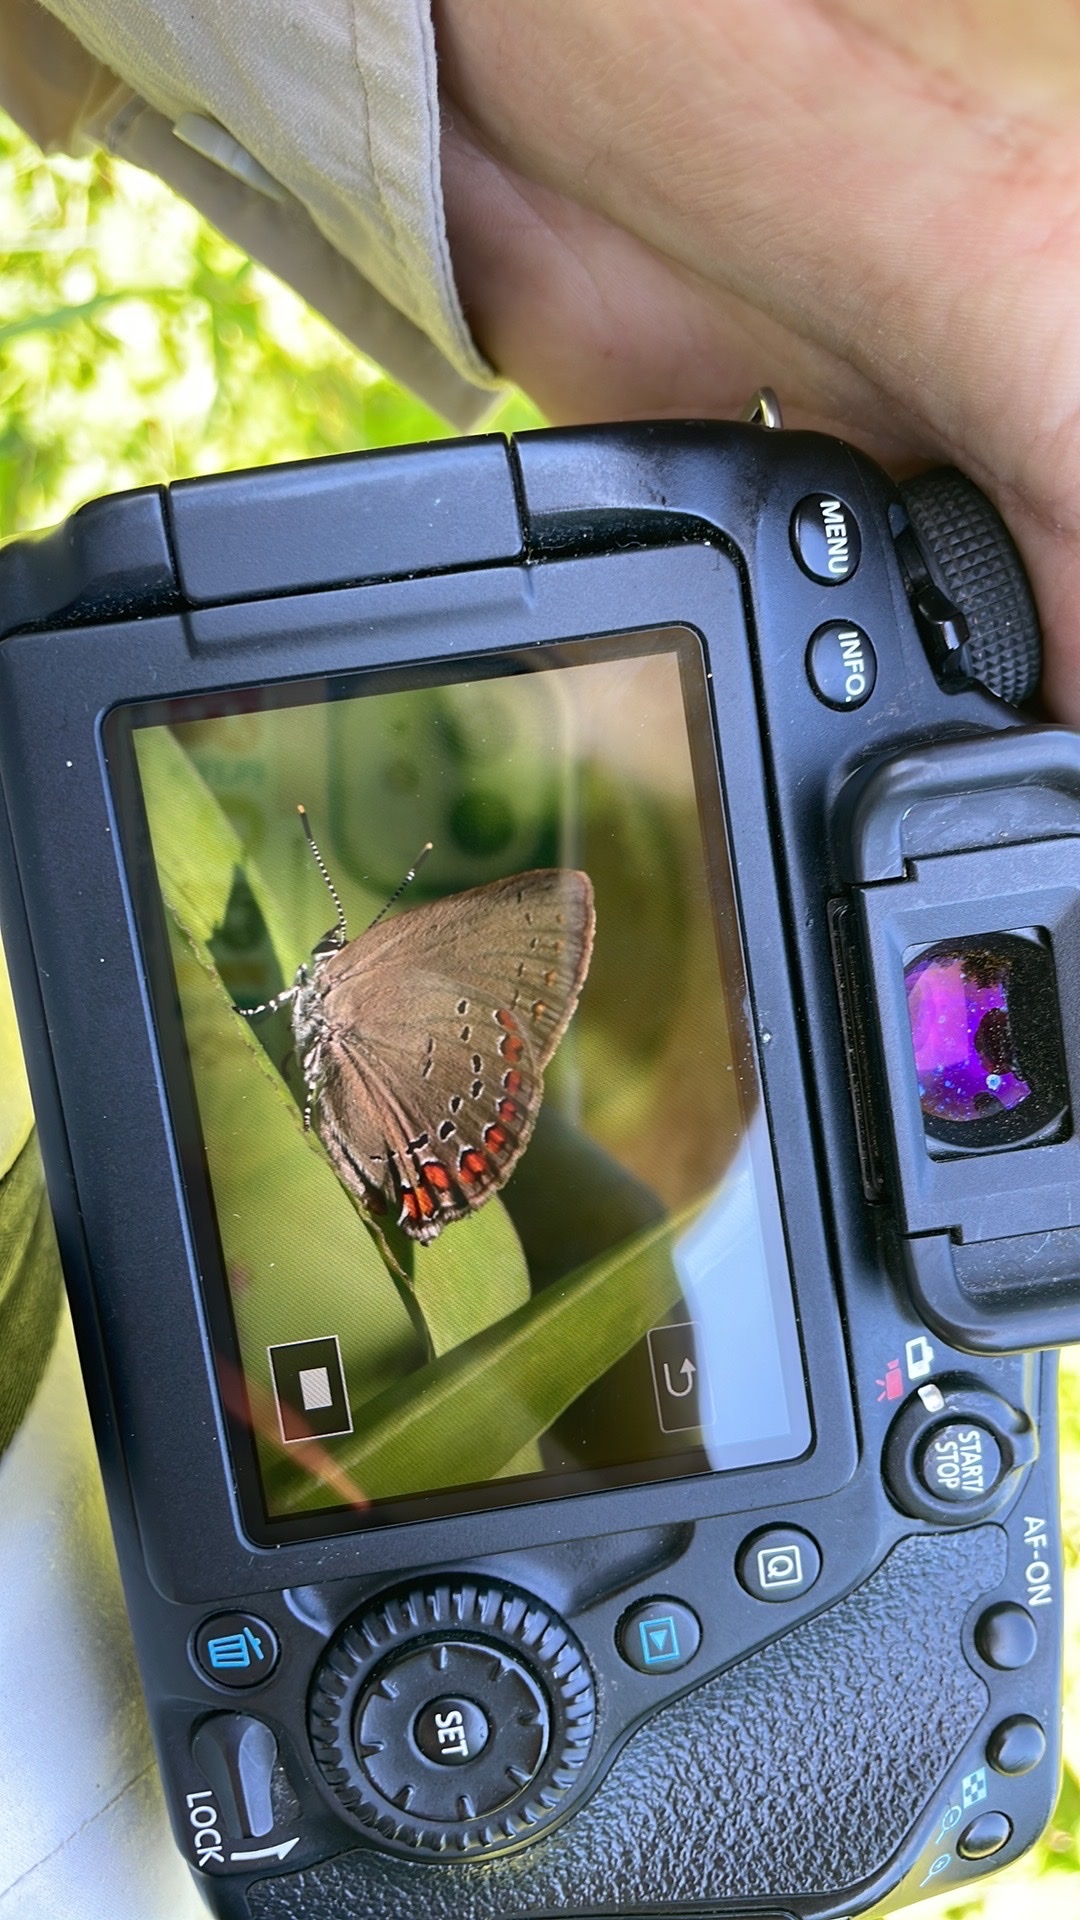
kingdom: Animalia
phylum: Arthropoda
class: Insecta
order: Lepidoptera
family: Lycaenidae
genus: Harkenclenus
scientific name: Harkenclenus titus
